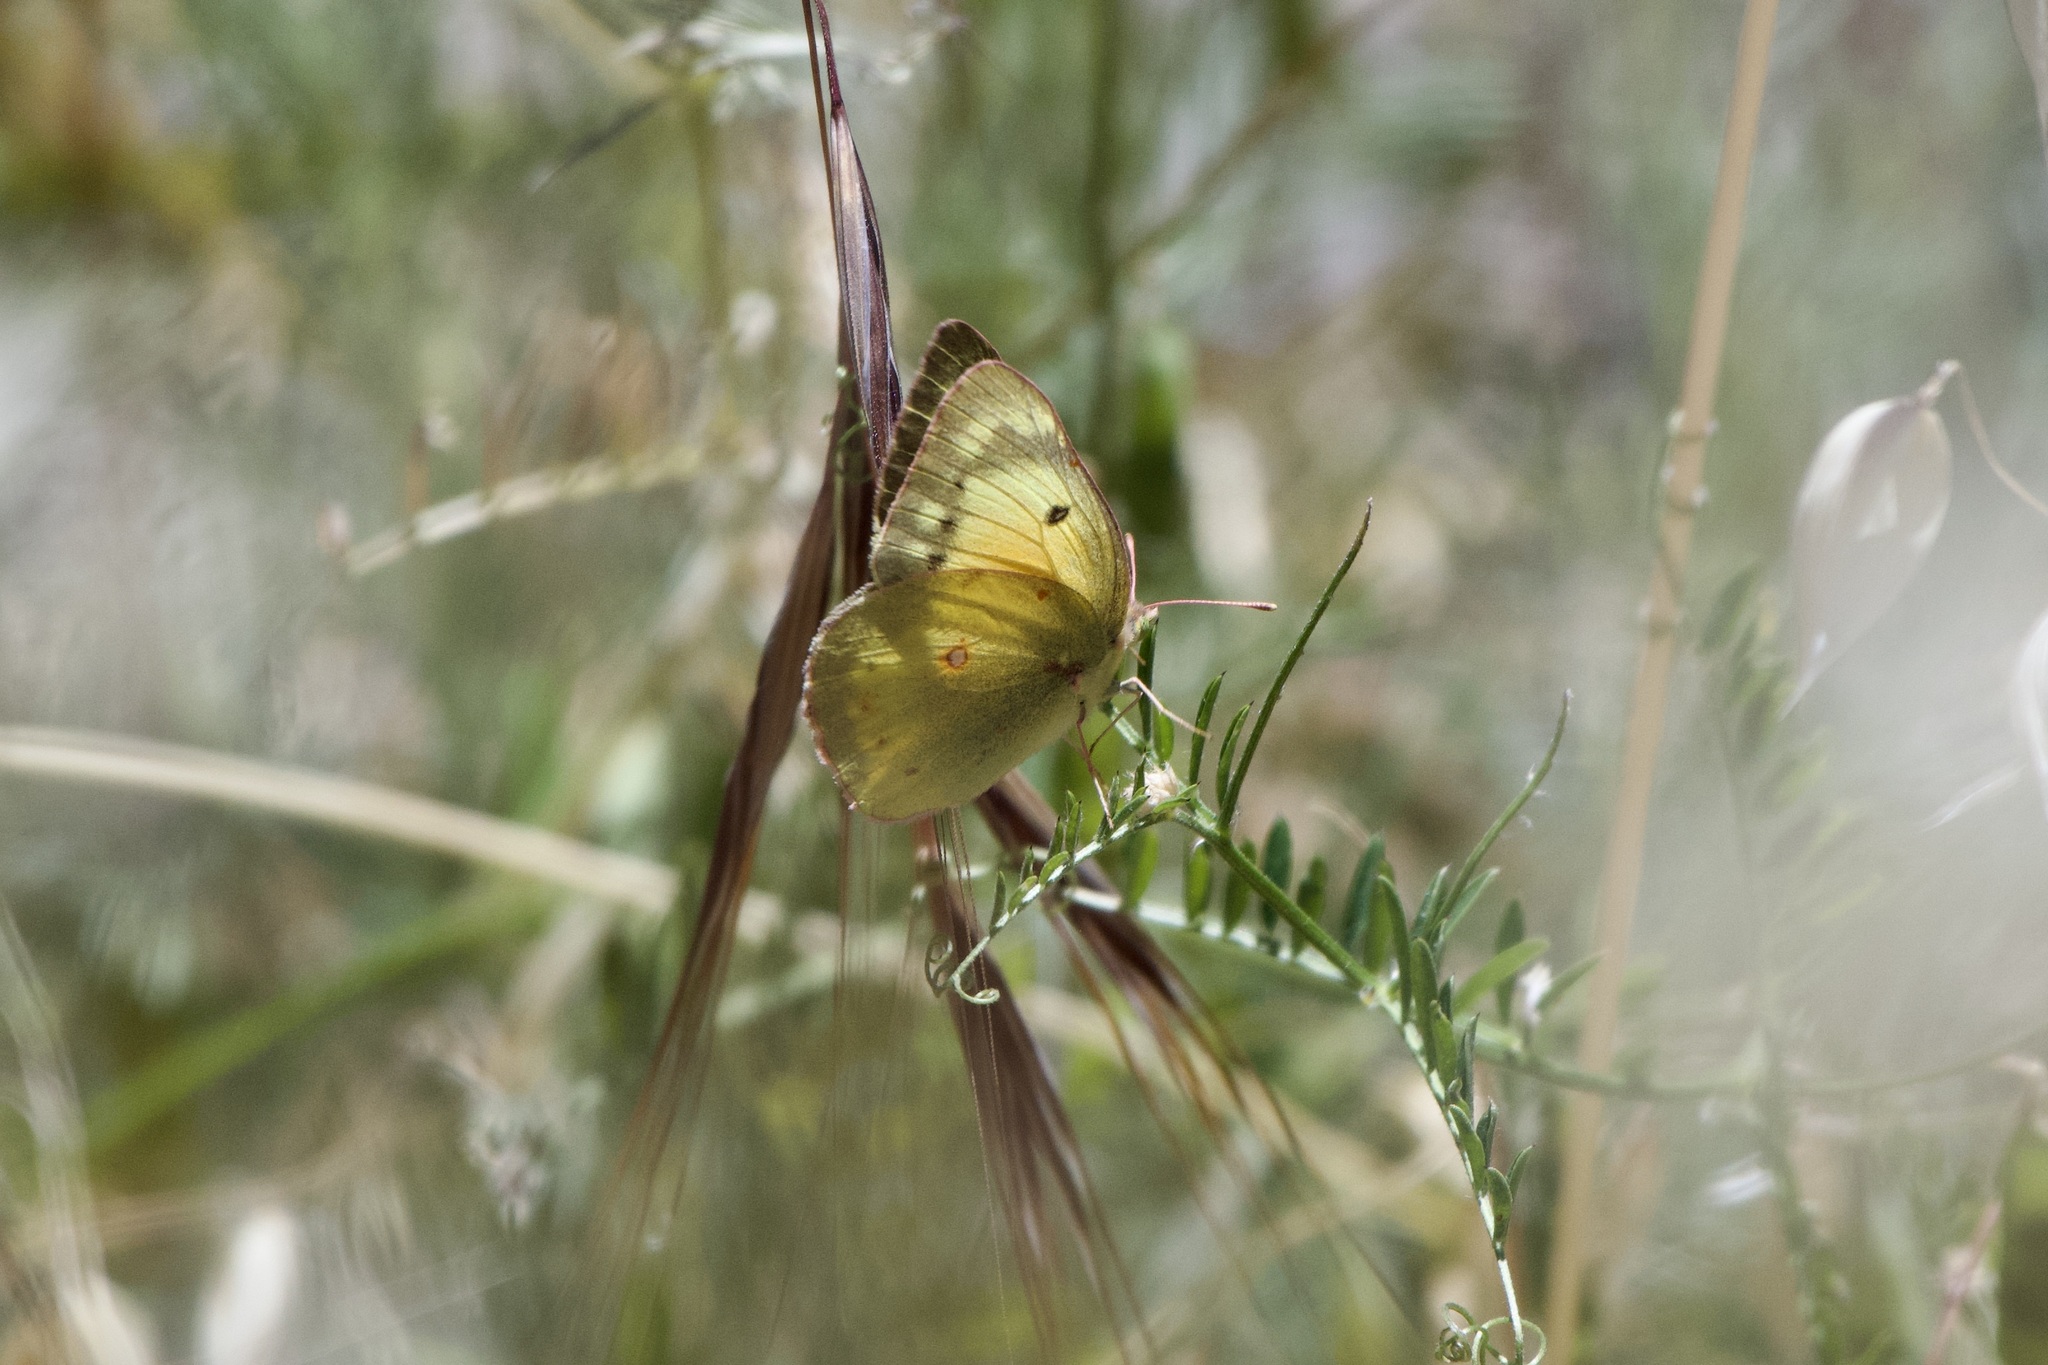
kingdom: Animalia
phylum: Arthropoda
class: Insecta
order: Lepidoptera
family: Pieridae
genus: Colias
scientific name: Colias eurytheme
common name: Alfalfa butterfly
